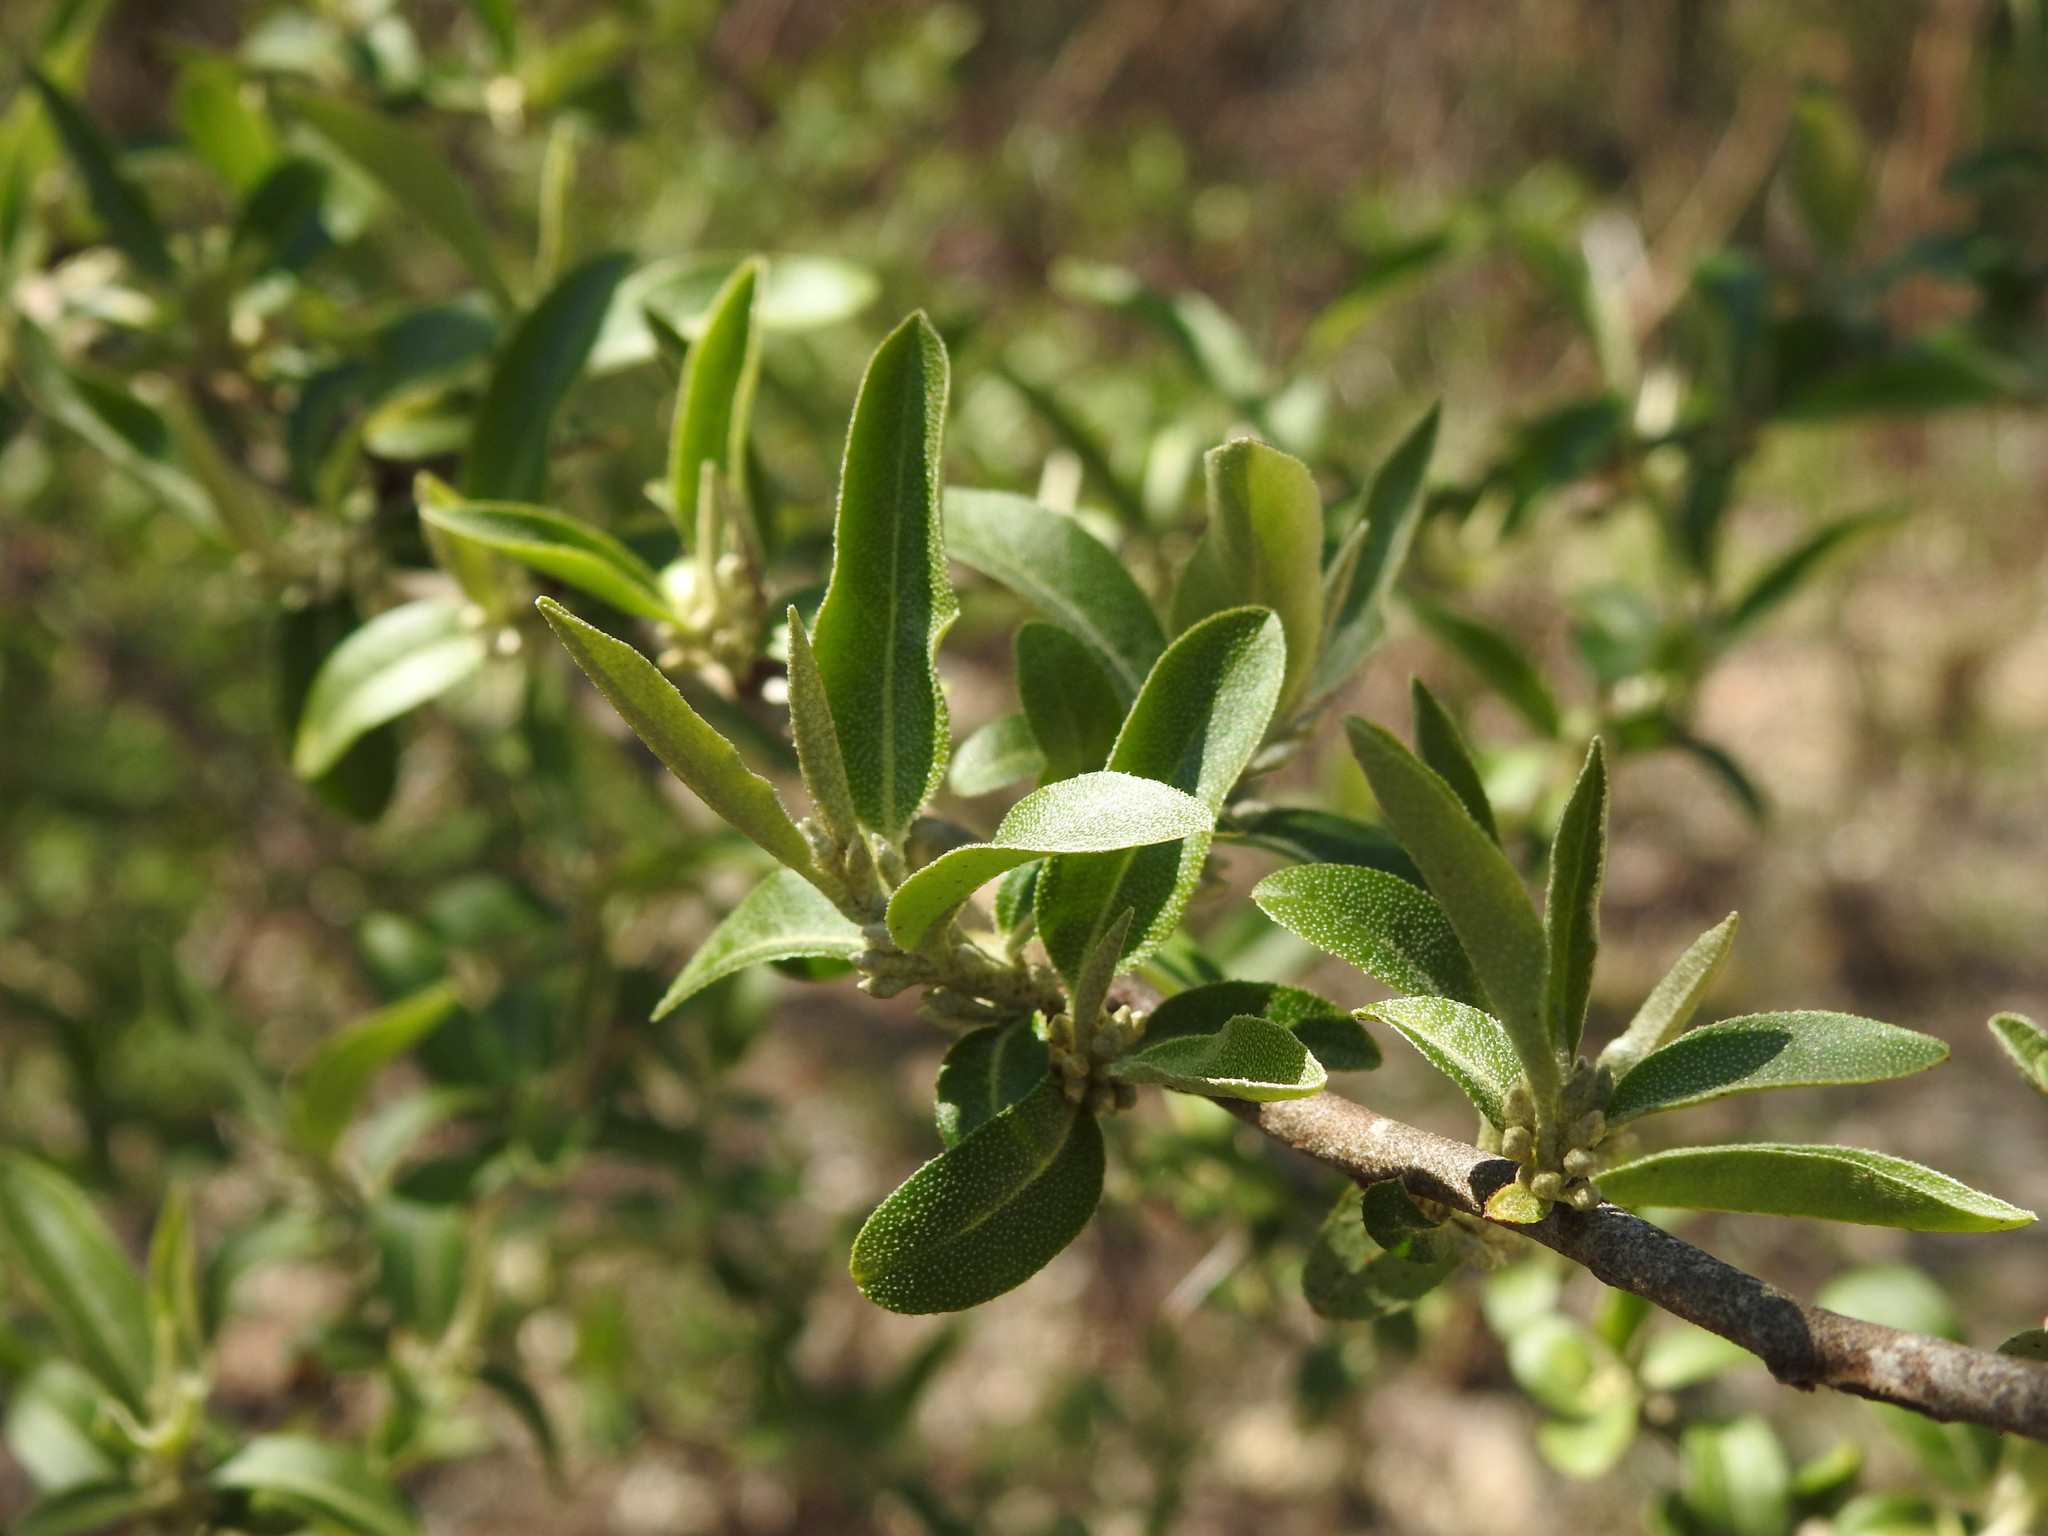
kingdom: Plantae
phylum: Tracheophyta
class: Magnoliopsida
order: Rosales
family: Elaeagnaceae
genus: Elaeagnus
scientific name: Elaeagnus umbellata
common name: Autumn olive
